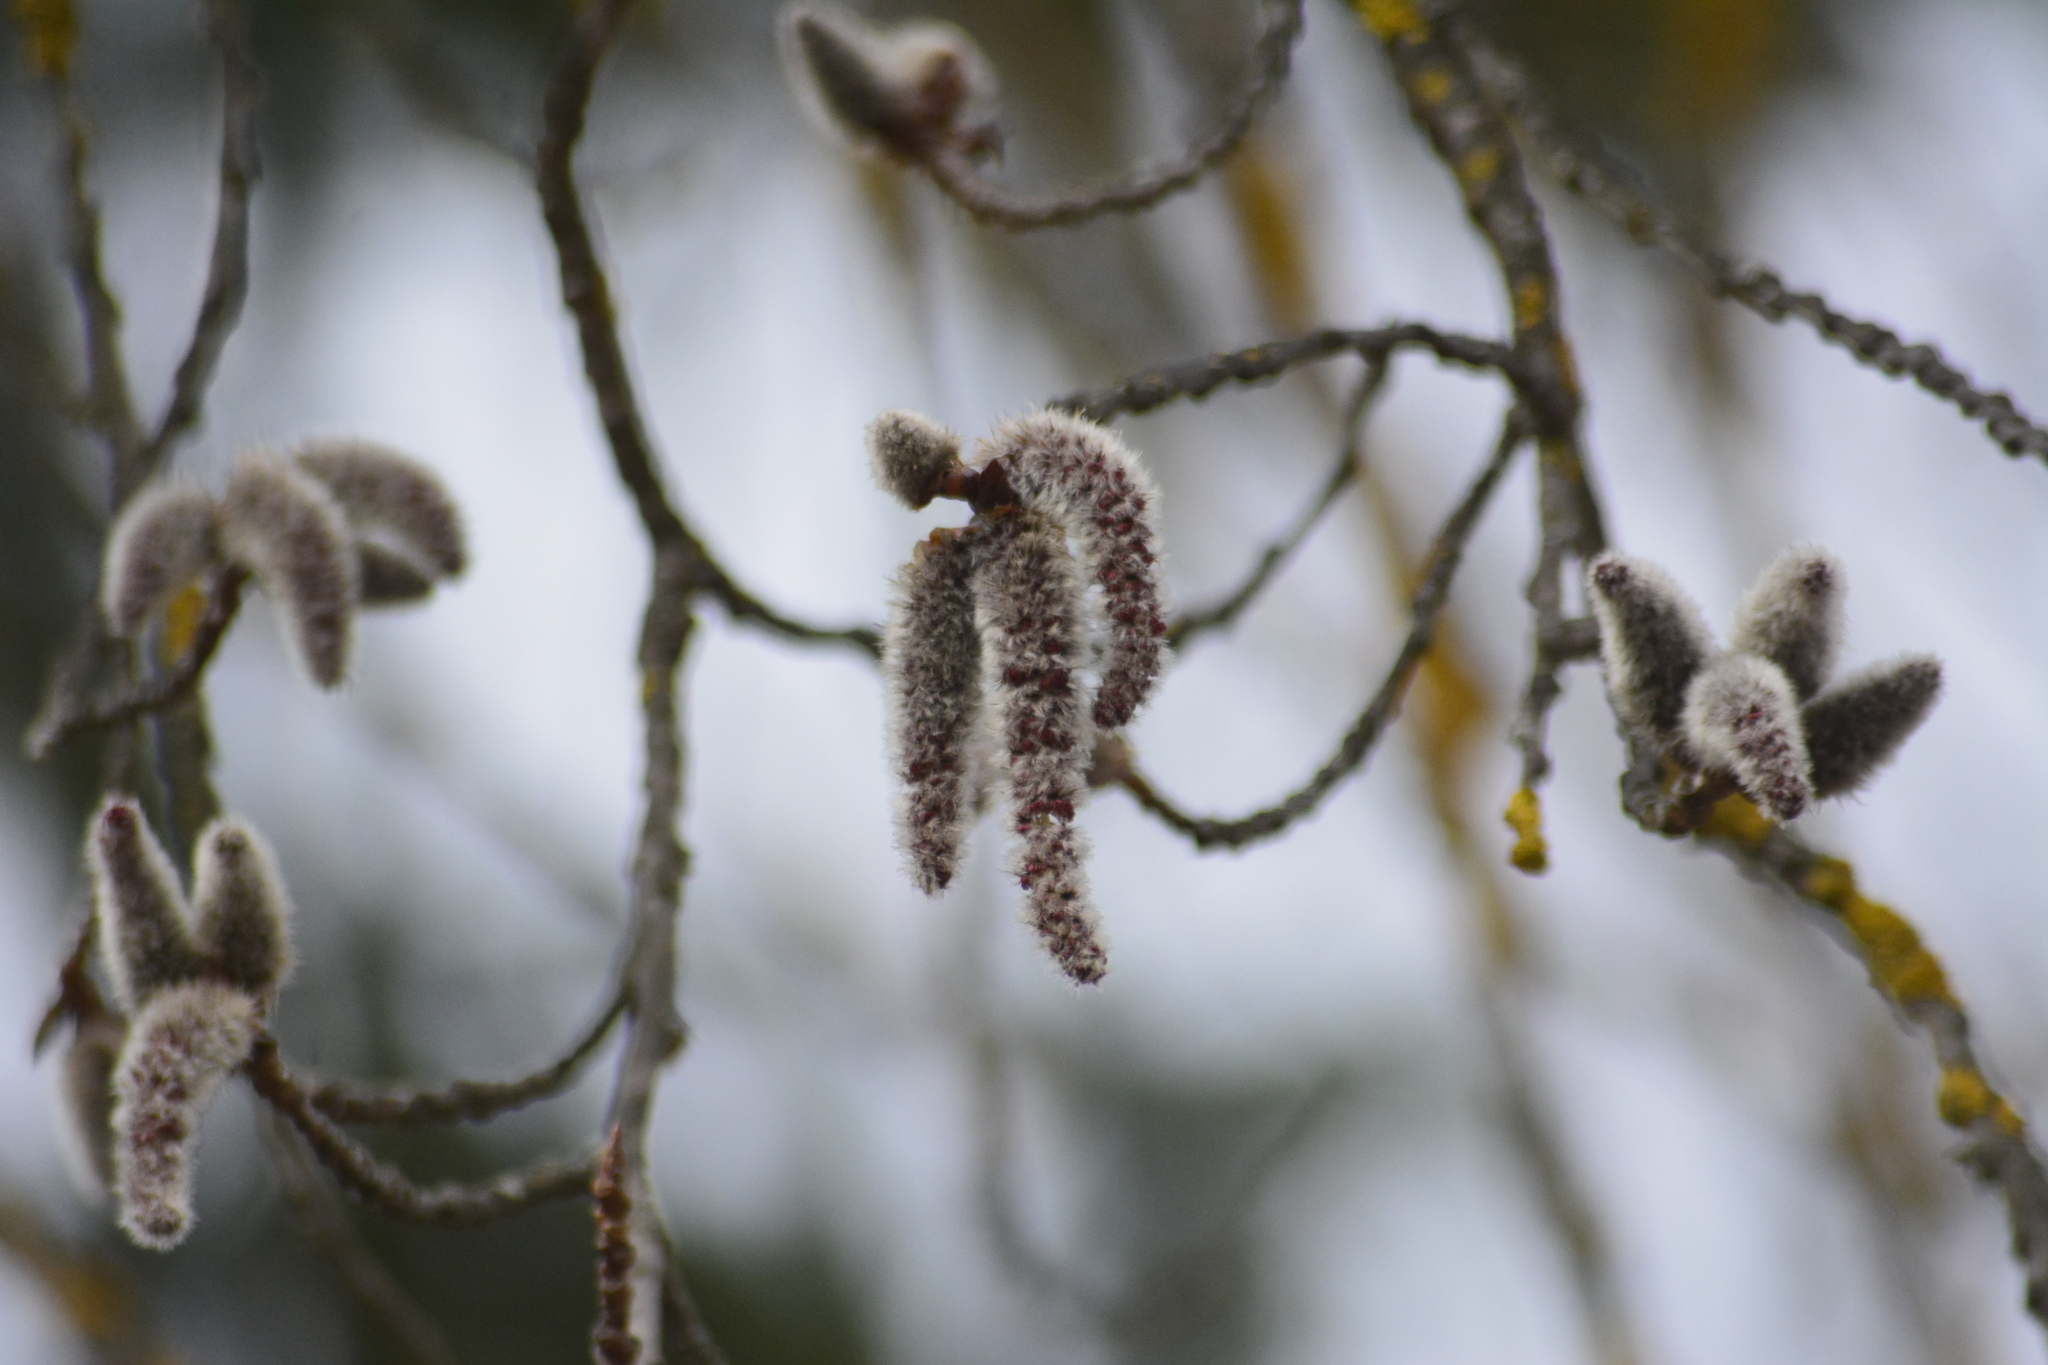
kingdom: Plantae
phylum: Tracheophyta
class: Magnoliopsida
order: Malpighiales
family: Salicaceae
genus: Populus
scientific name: Populus tremula
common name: European aspen
